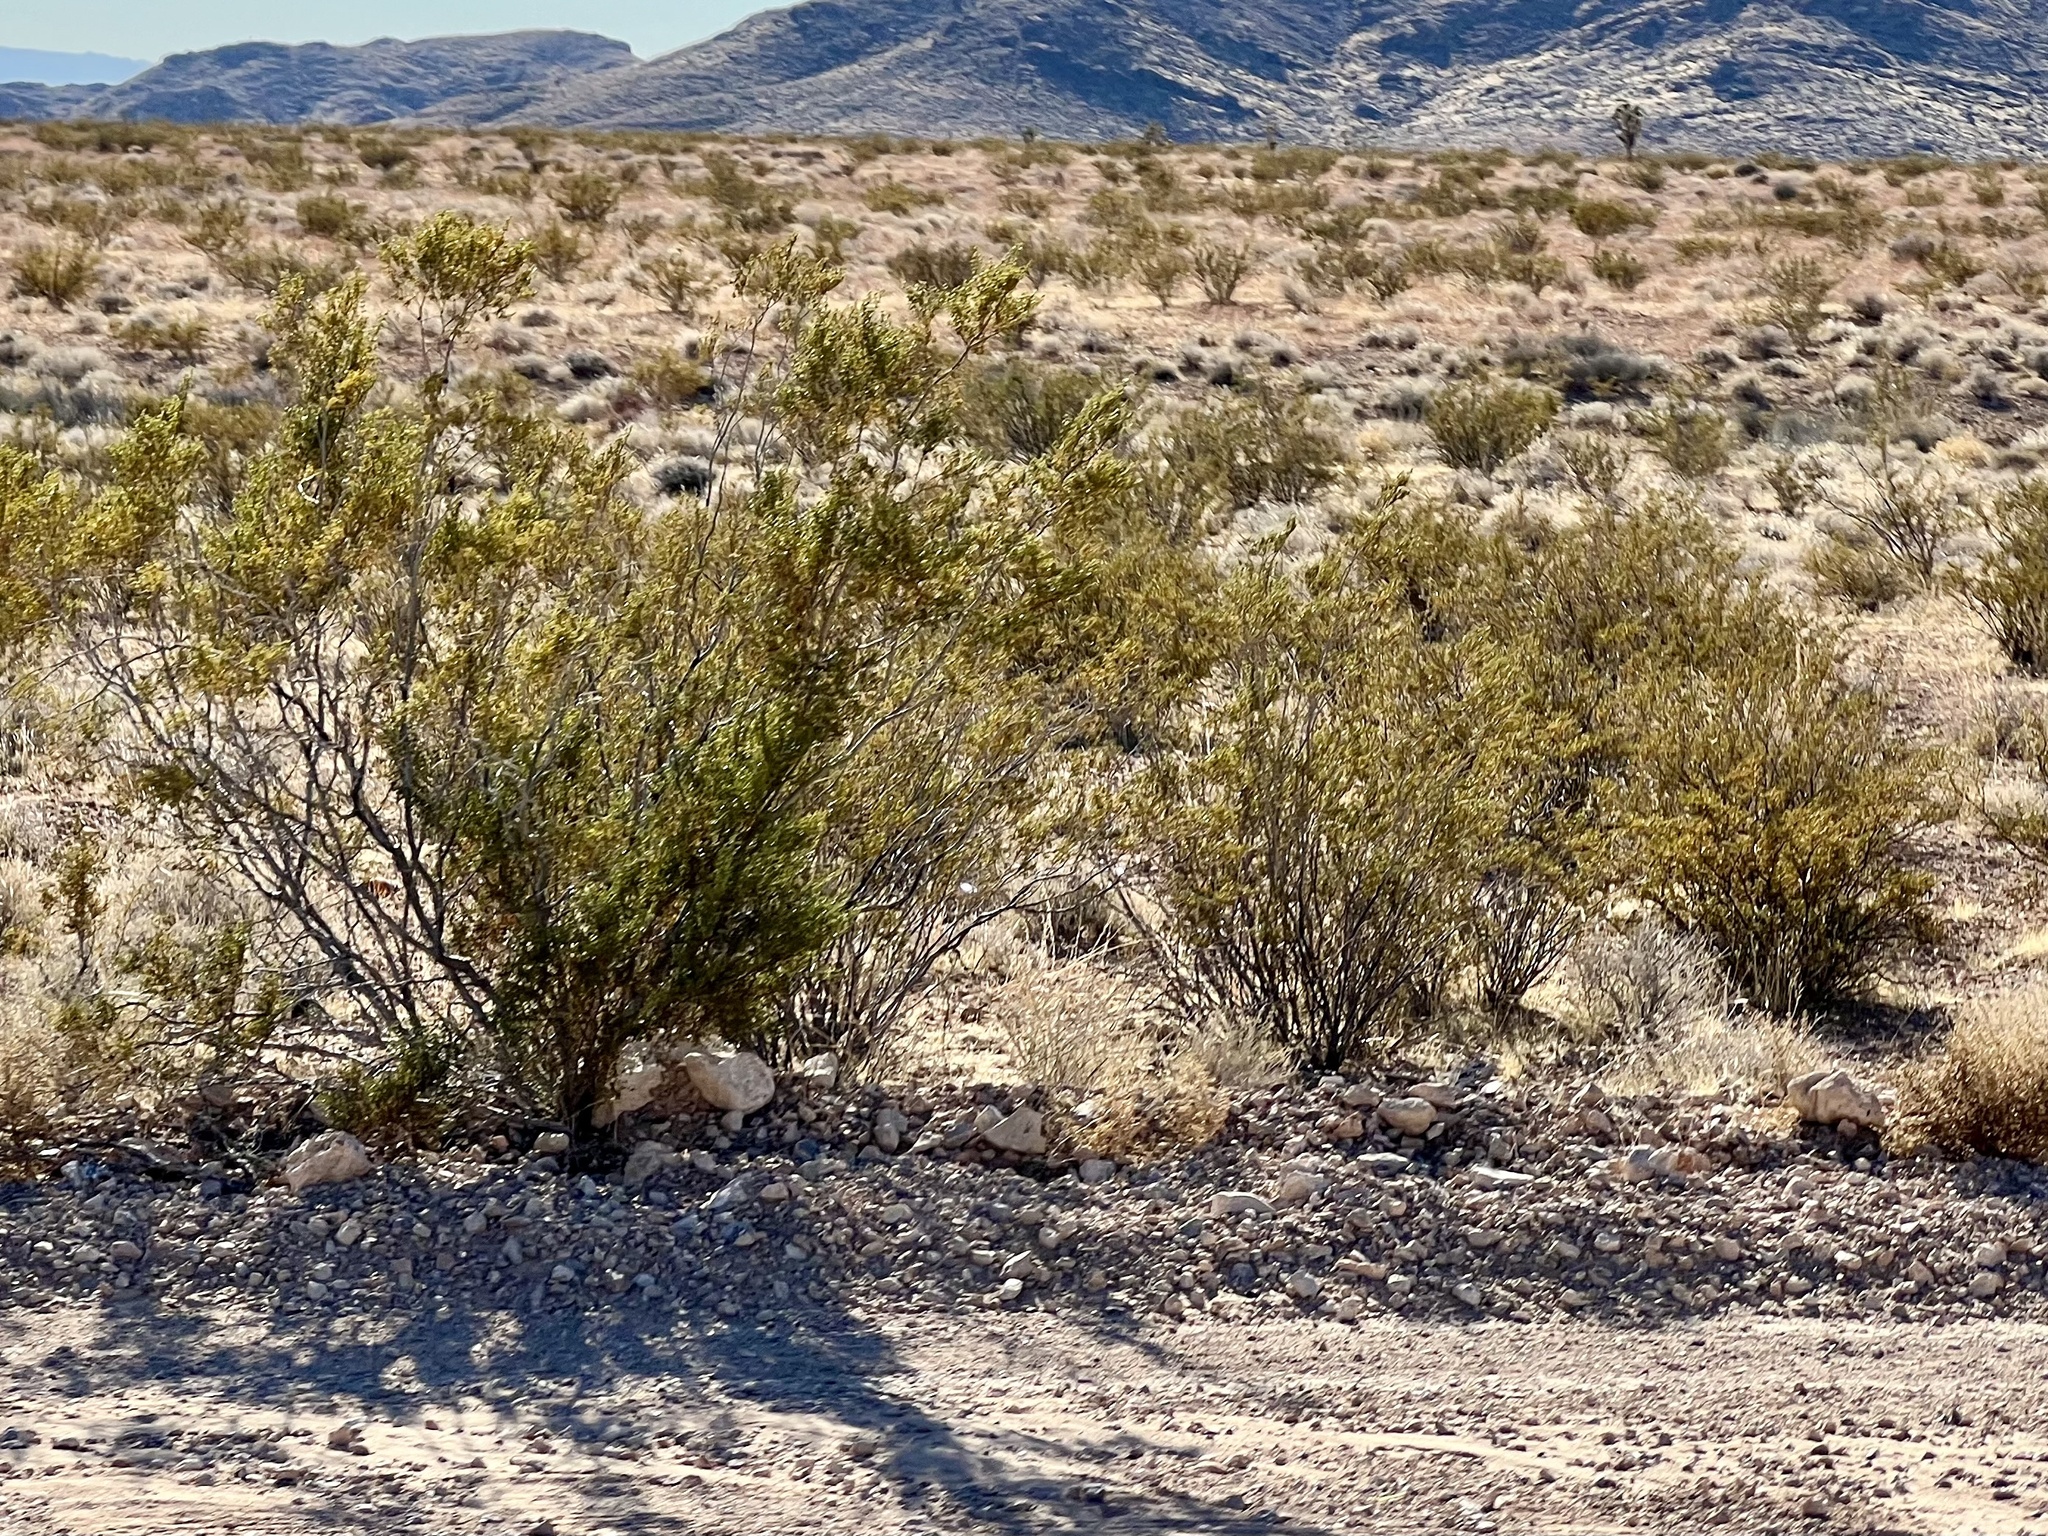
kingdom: Plantae
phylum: Tracheophyta
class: Magnoliopsida
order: Zygophyllales
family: Zygophyllaceae
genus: Larrea
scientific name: Larrea tridentata
